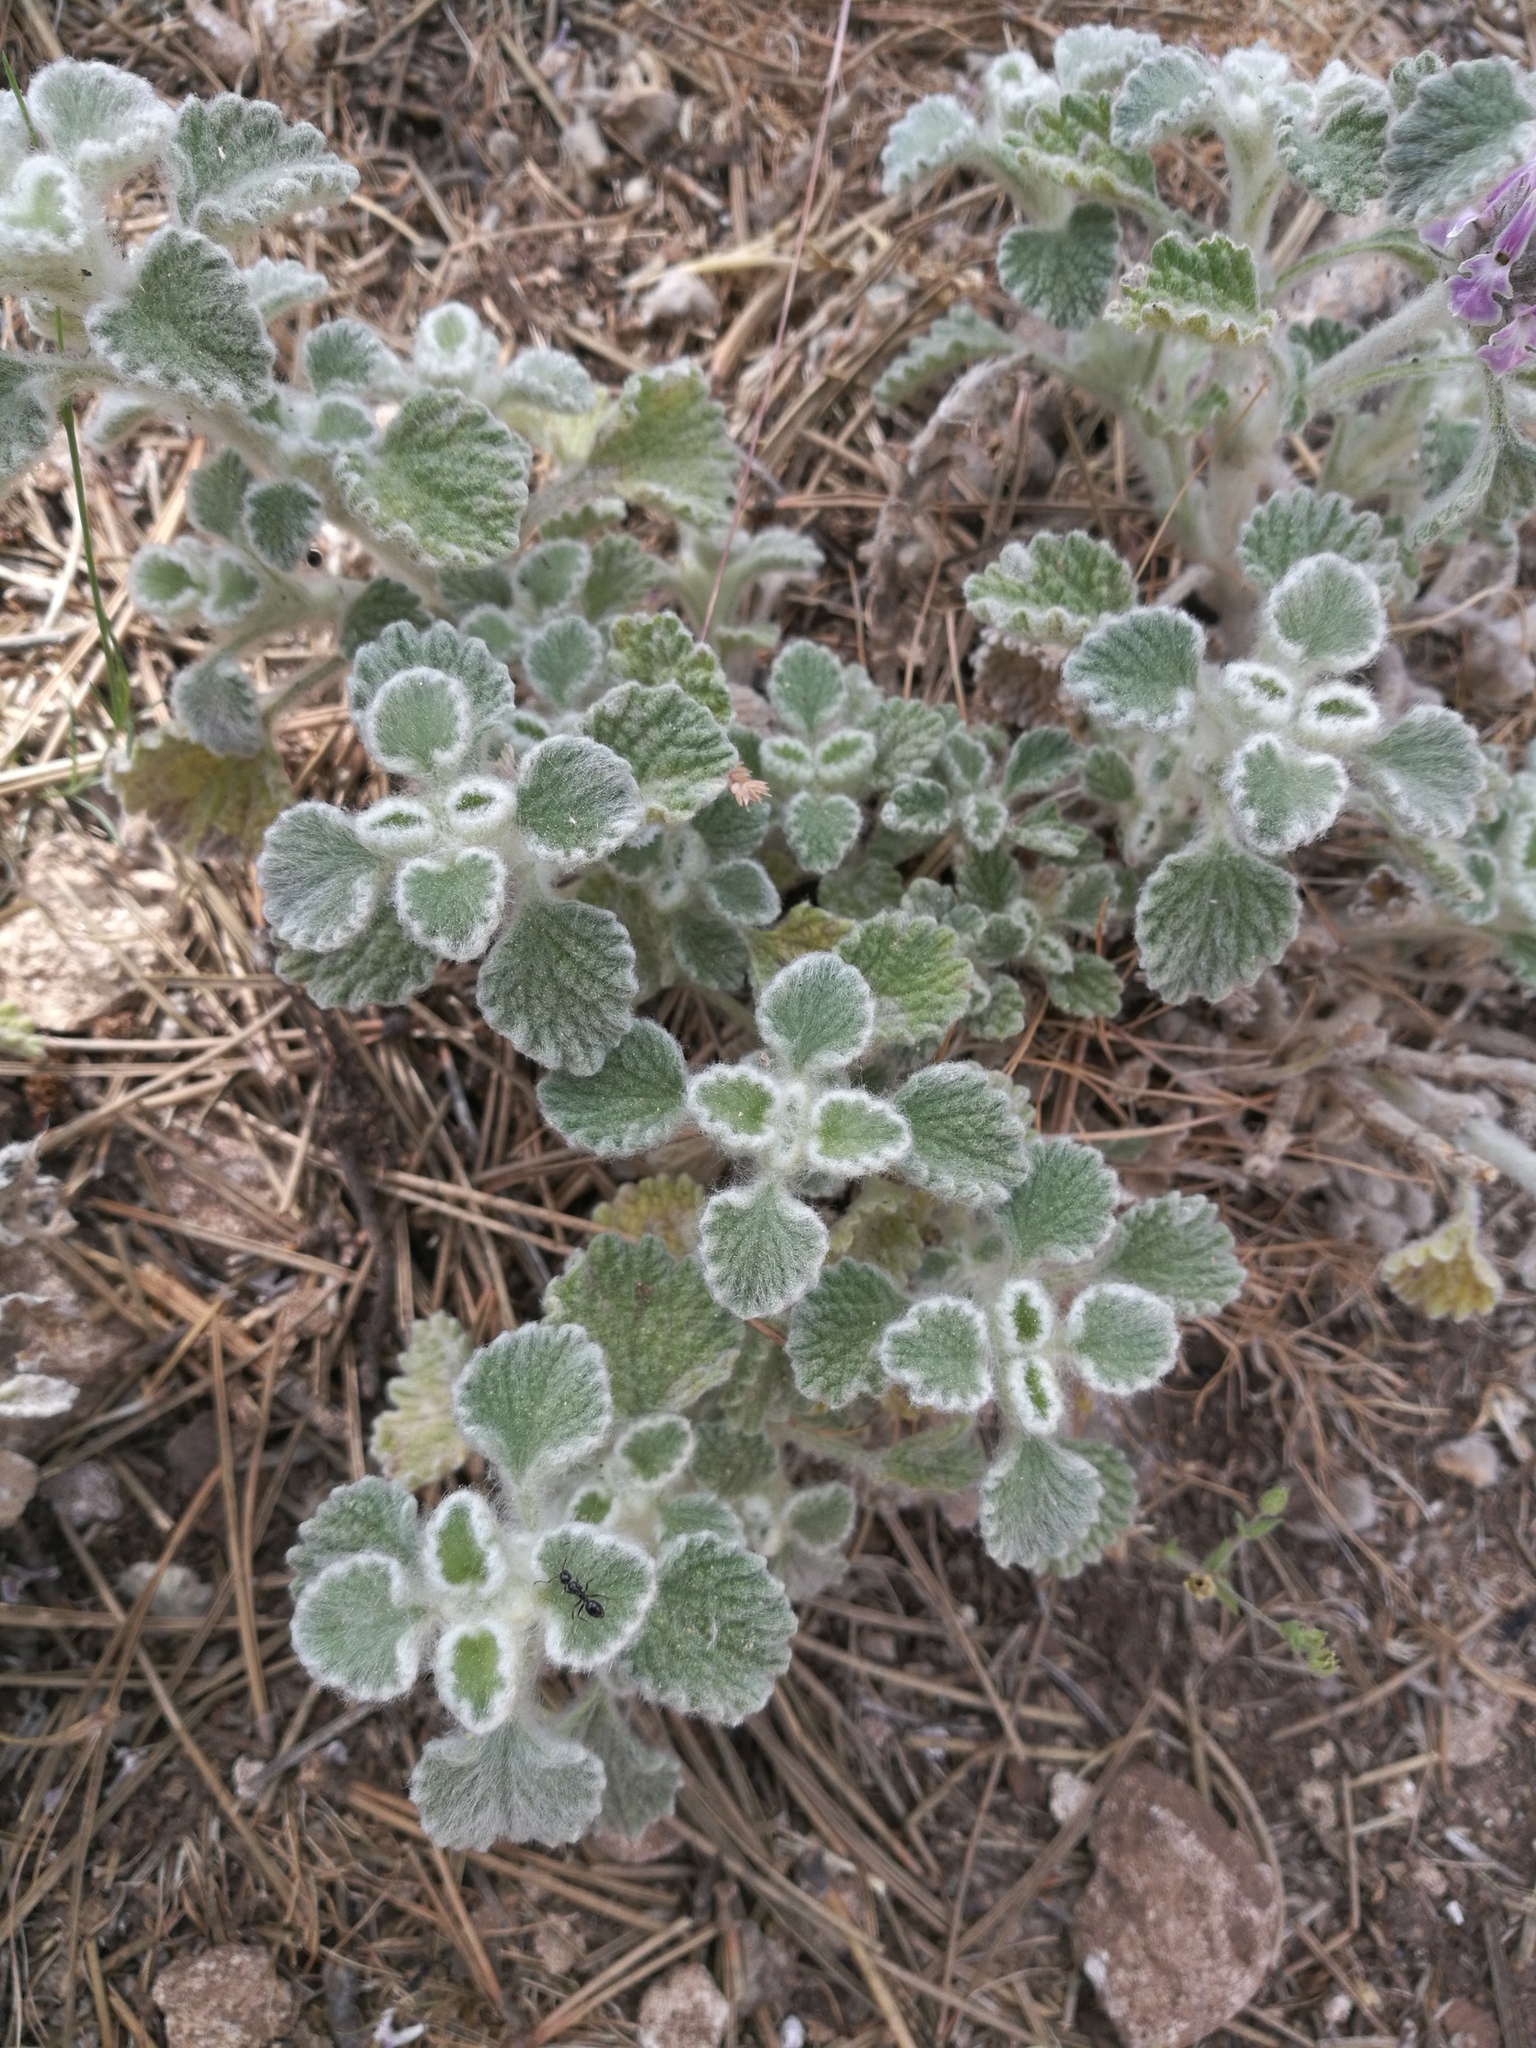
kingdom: Plantae
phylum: Tracheophyta
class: Magnoliopsida
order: Lamiales
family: Lamiaceae
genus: Marrubium
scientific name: Marrubium supinum
